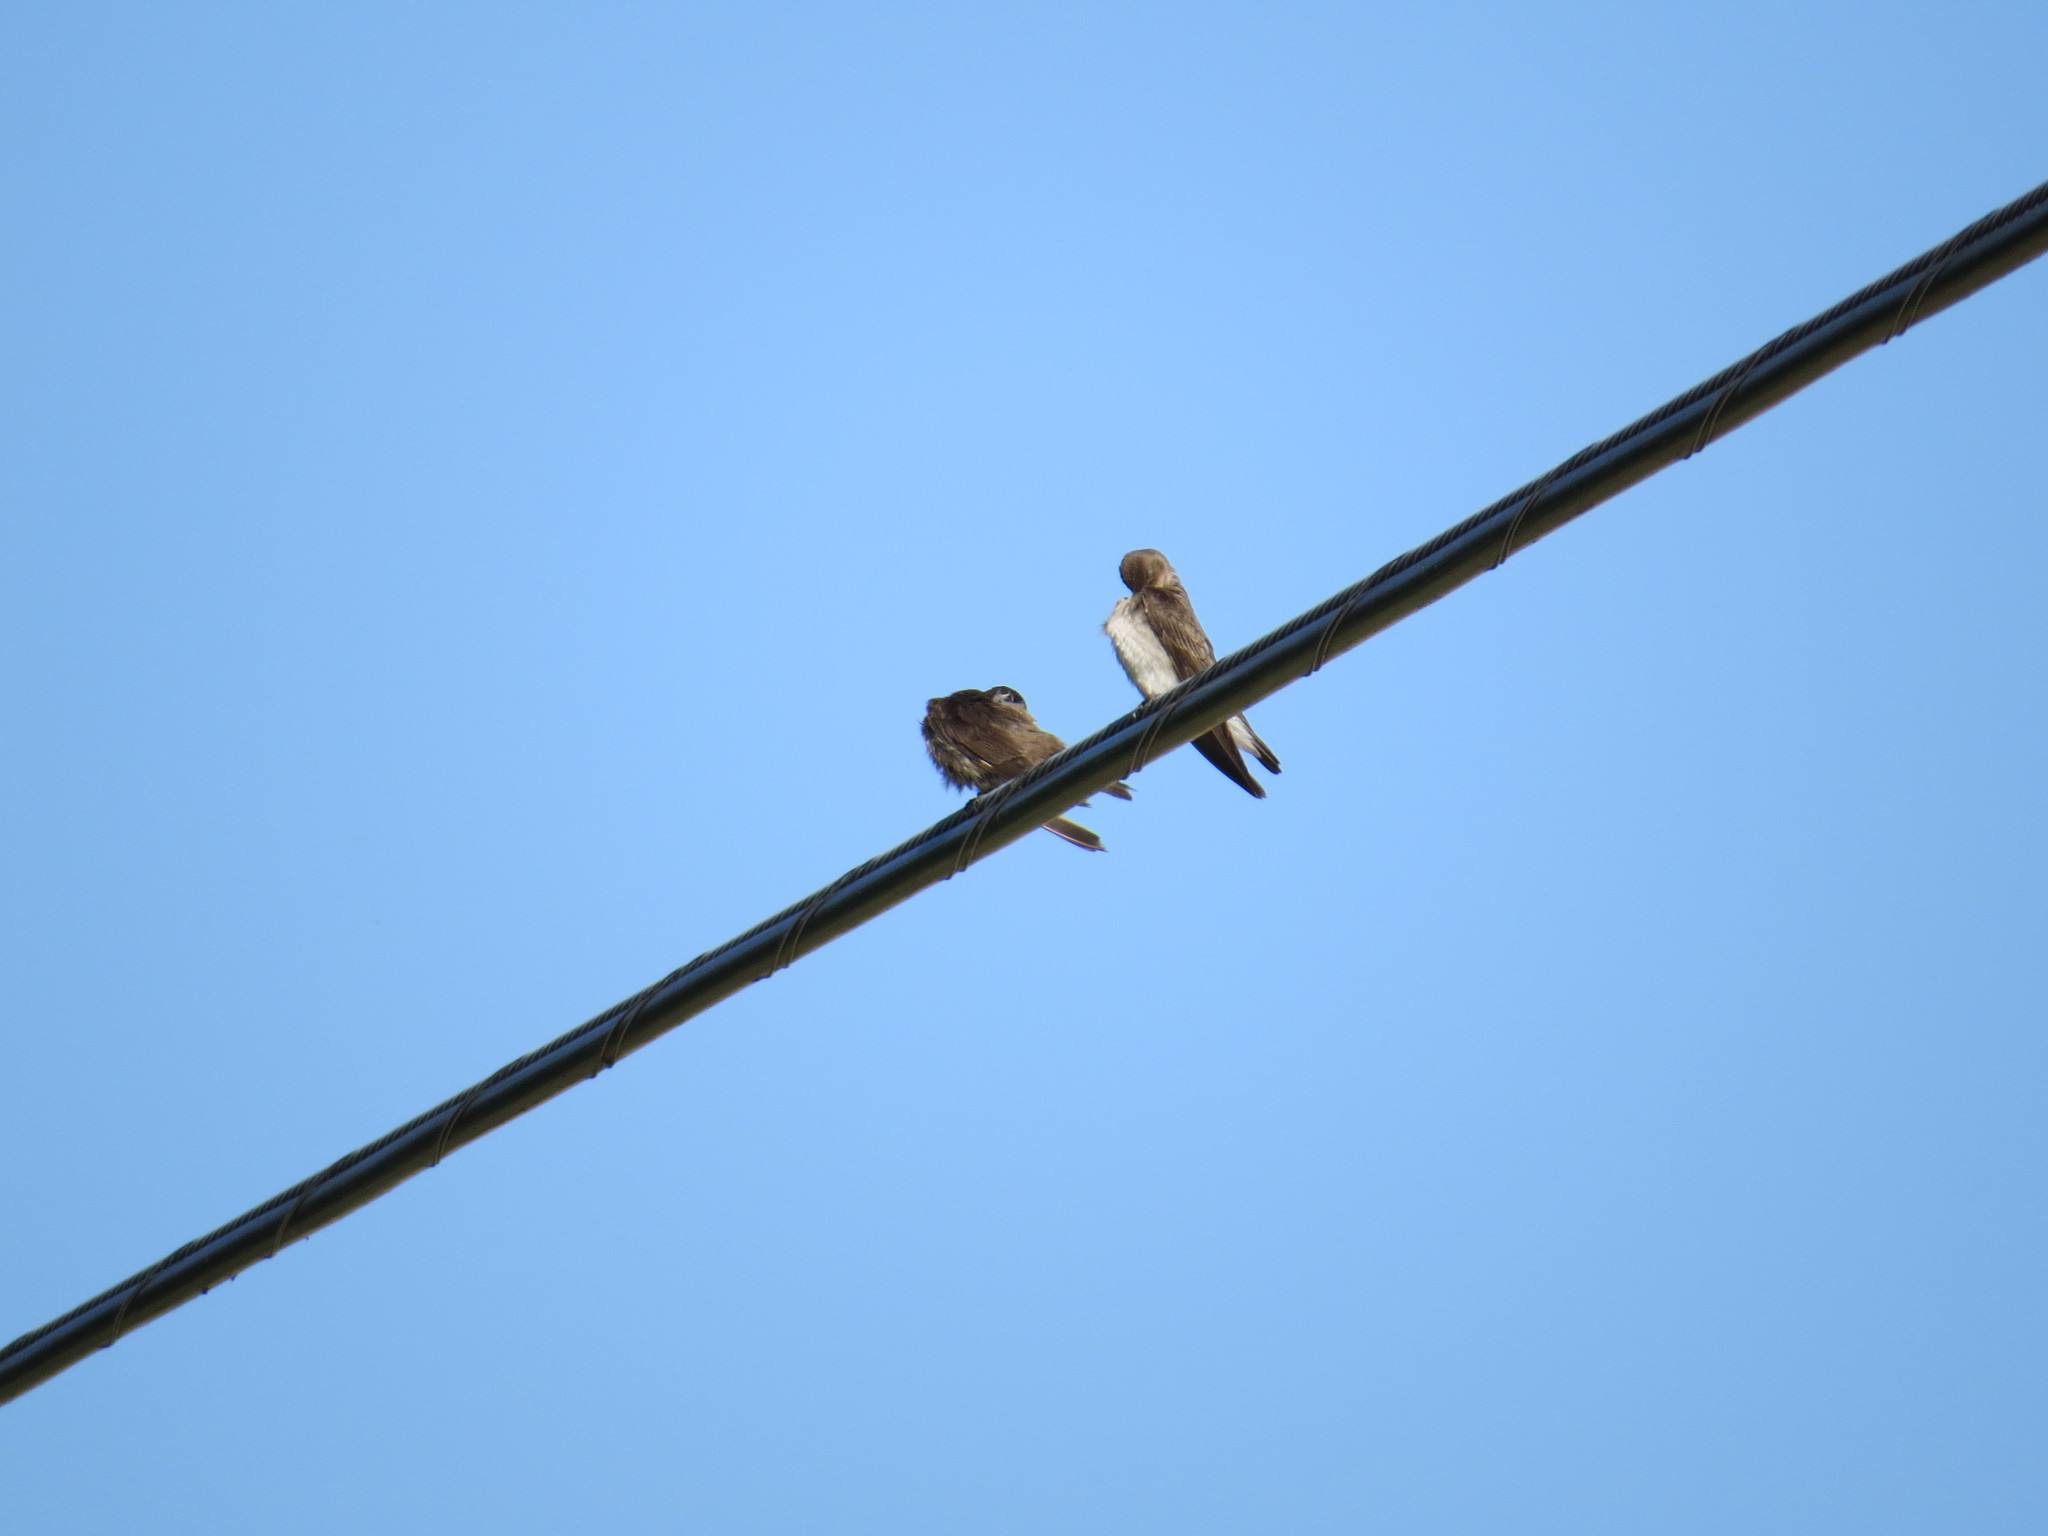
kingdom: Animalia
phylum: Chordata
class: Aves
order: Passeriformes
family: Hirundinidae
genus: Stelgidopteryx
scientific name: Stelgidopteryx serripennis
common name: Northern rough-winged swallow
